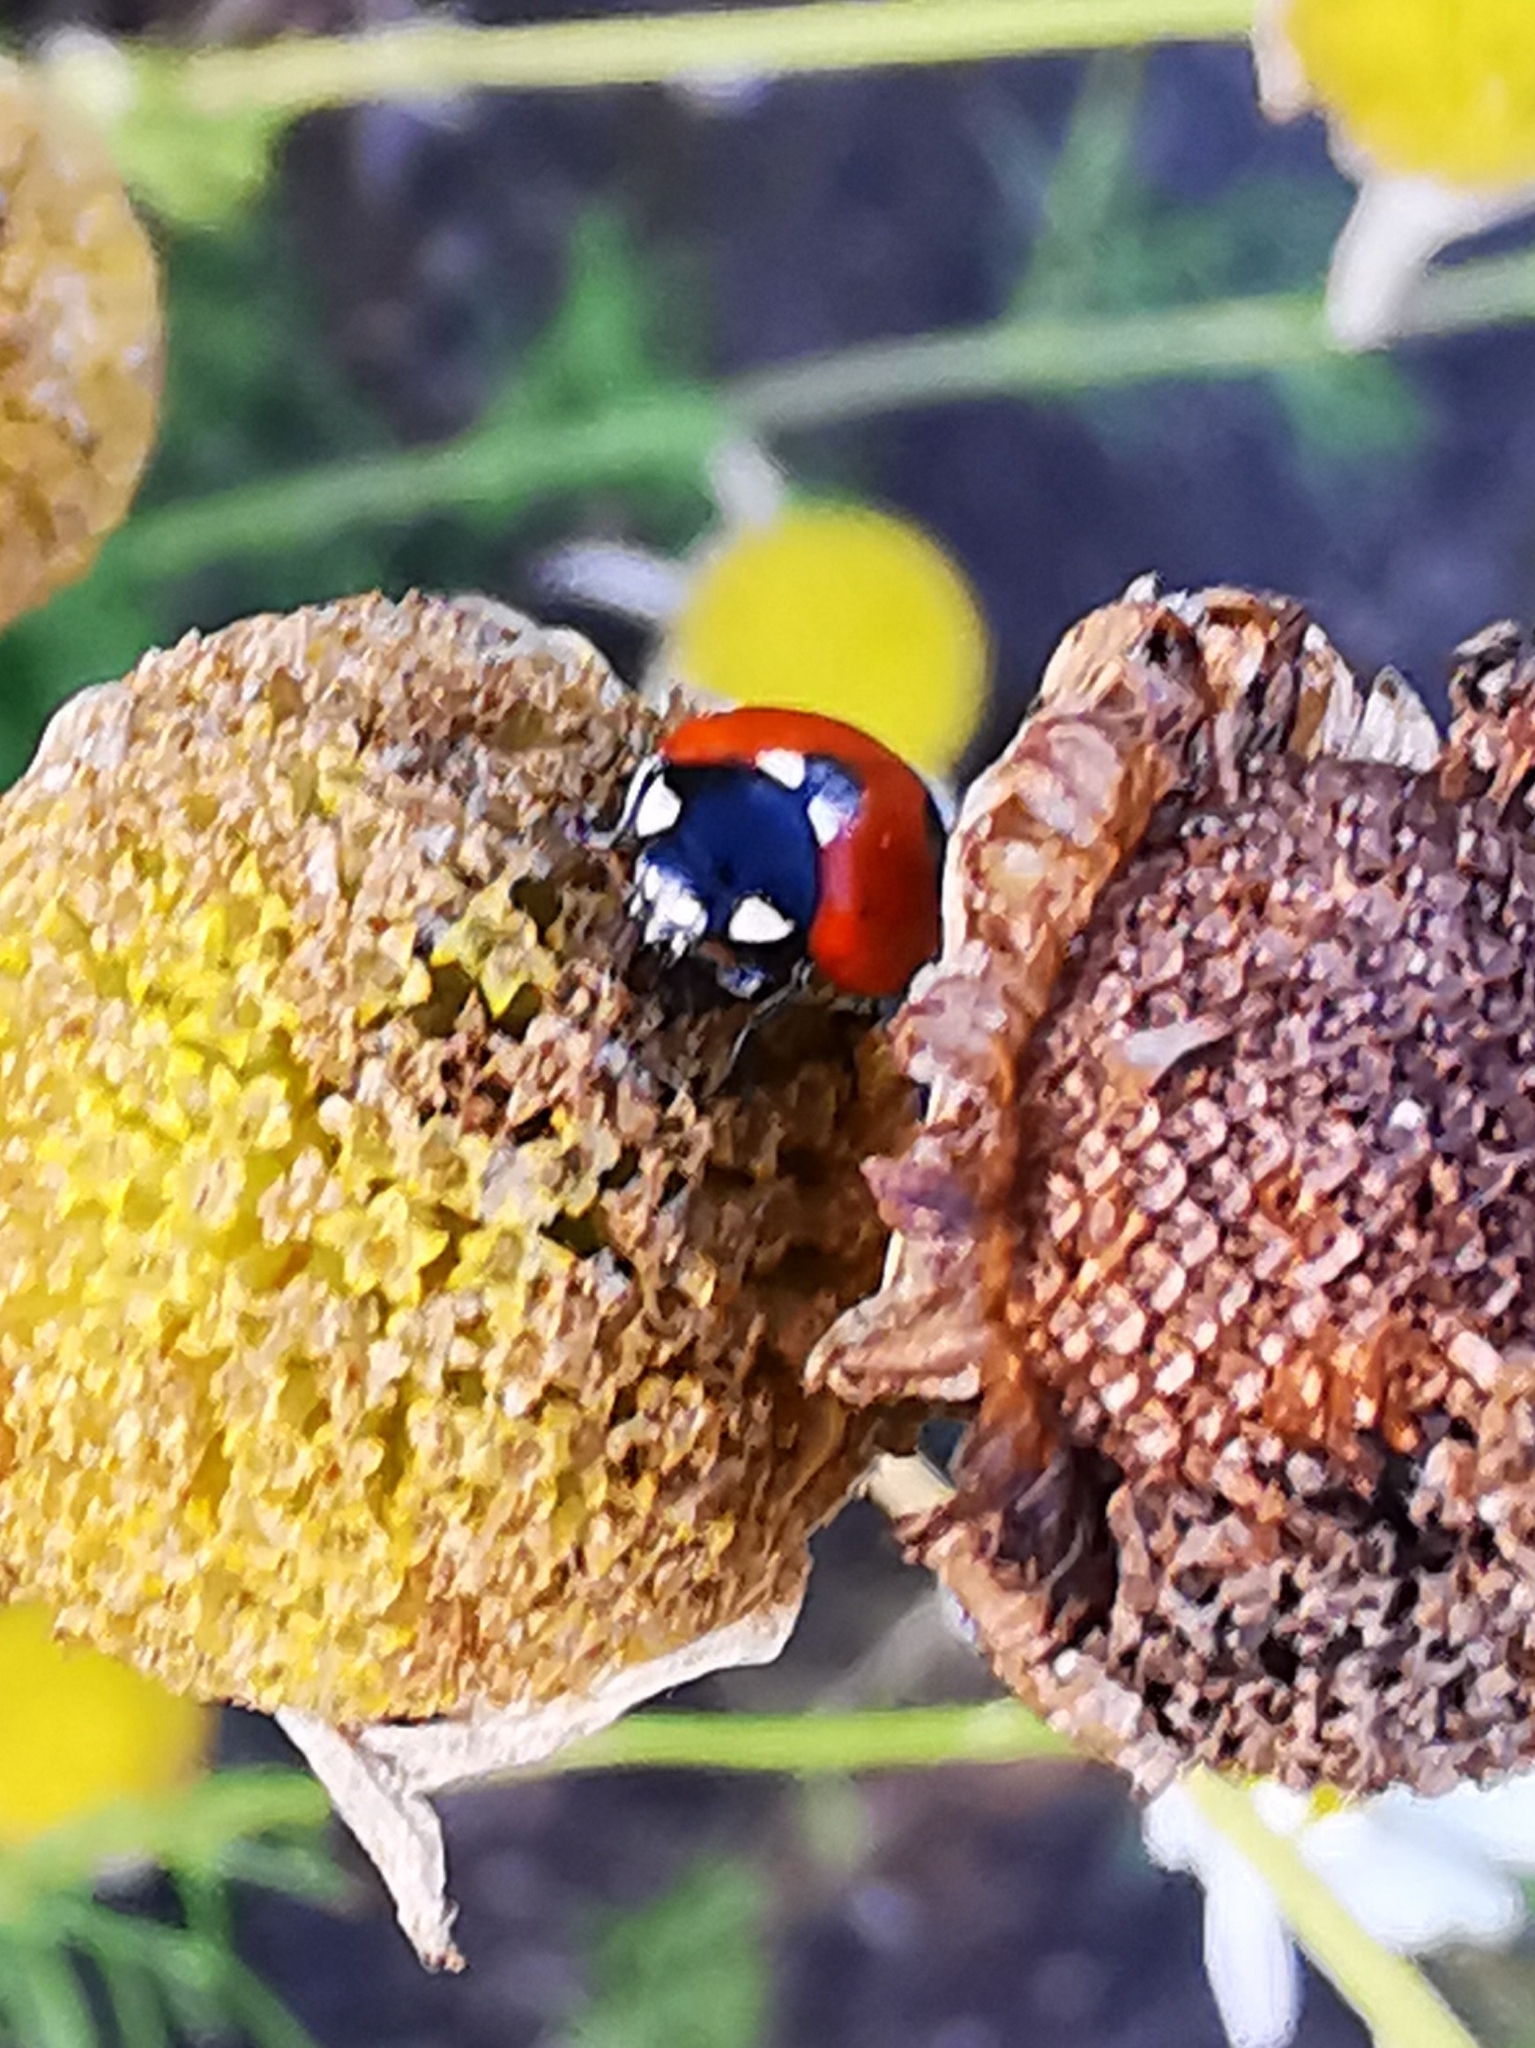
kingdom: Animalia
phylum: Arthropoda
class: Insecta
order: Coleoptera
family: Coccinellidae
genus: Coccinella
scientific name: Coccinella septempunctata
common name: Sevenspotted lady beetle
